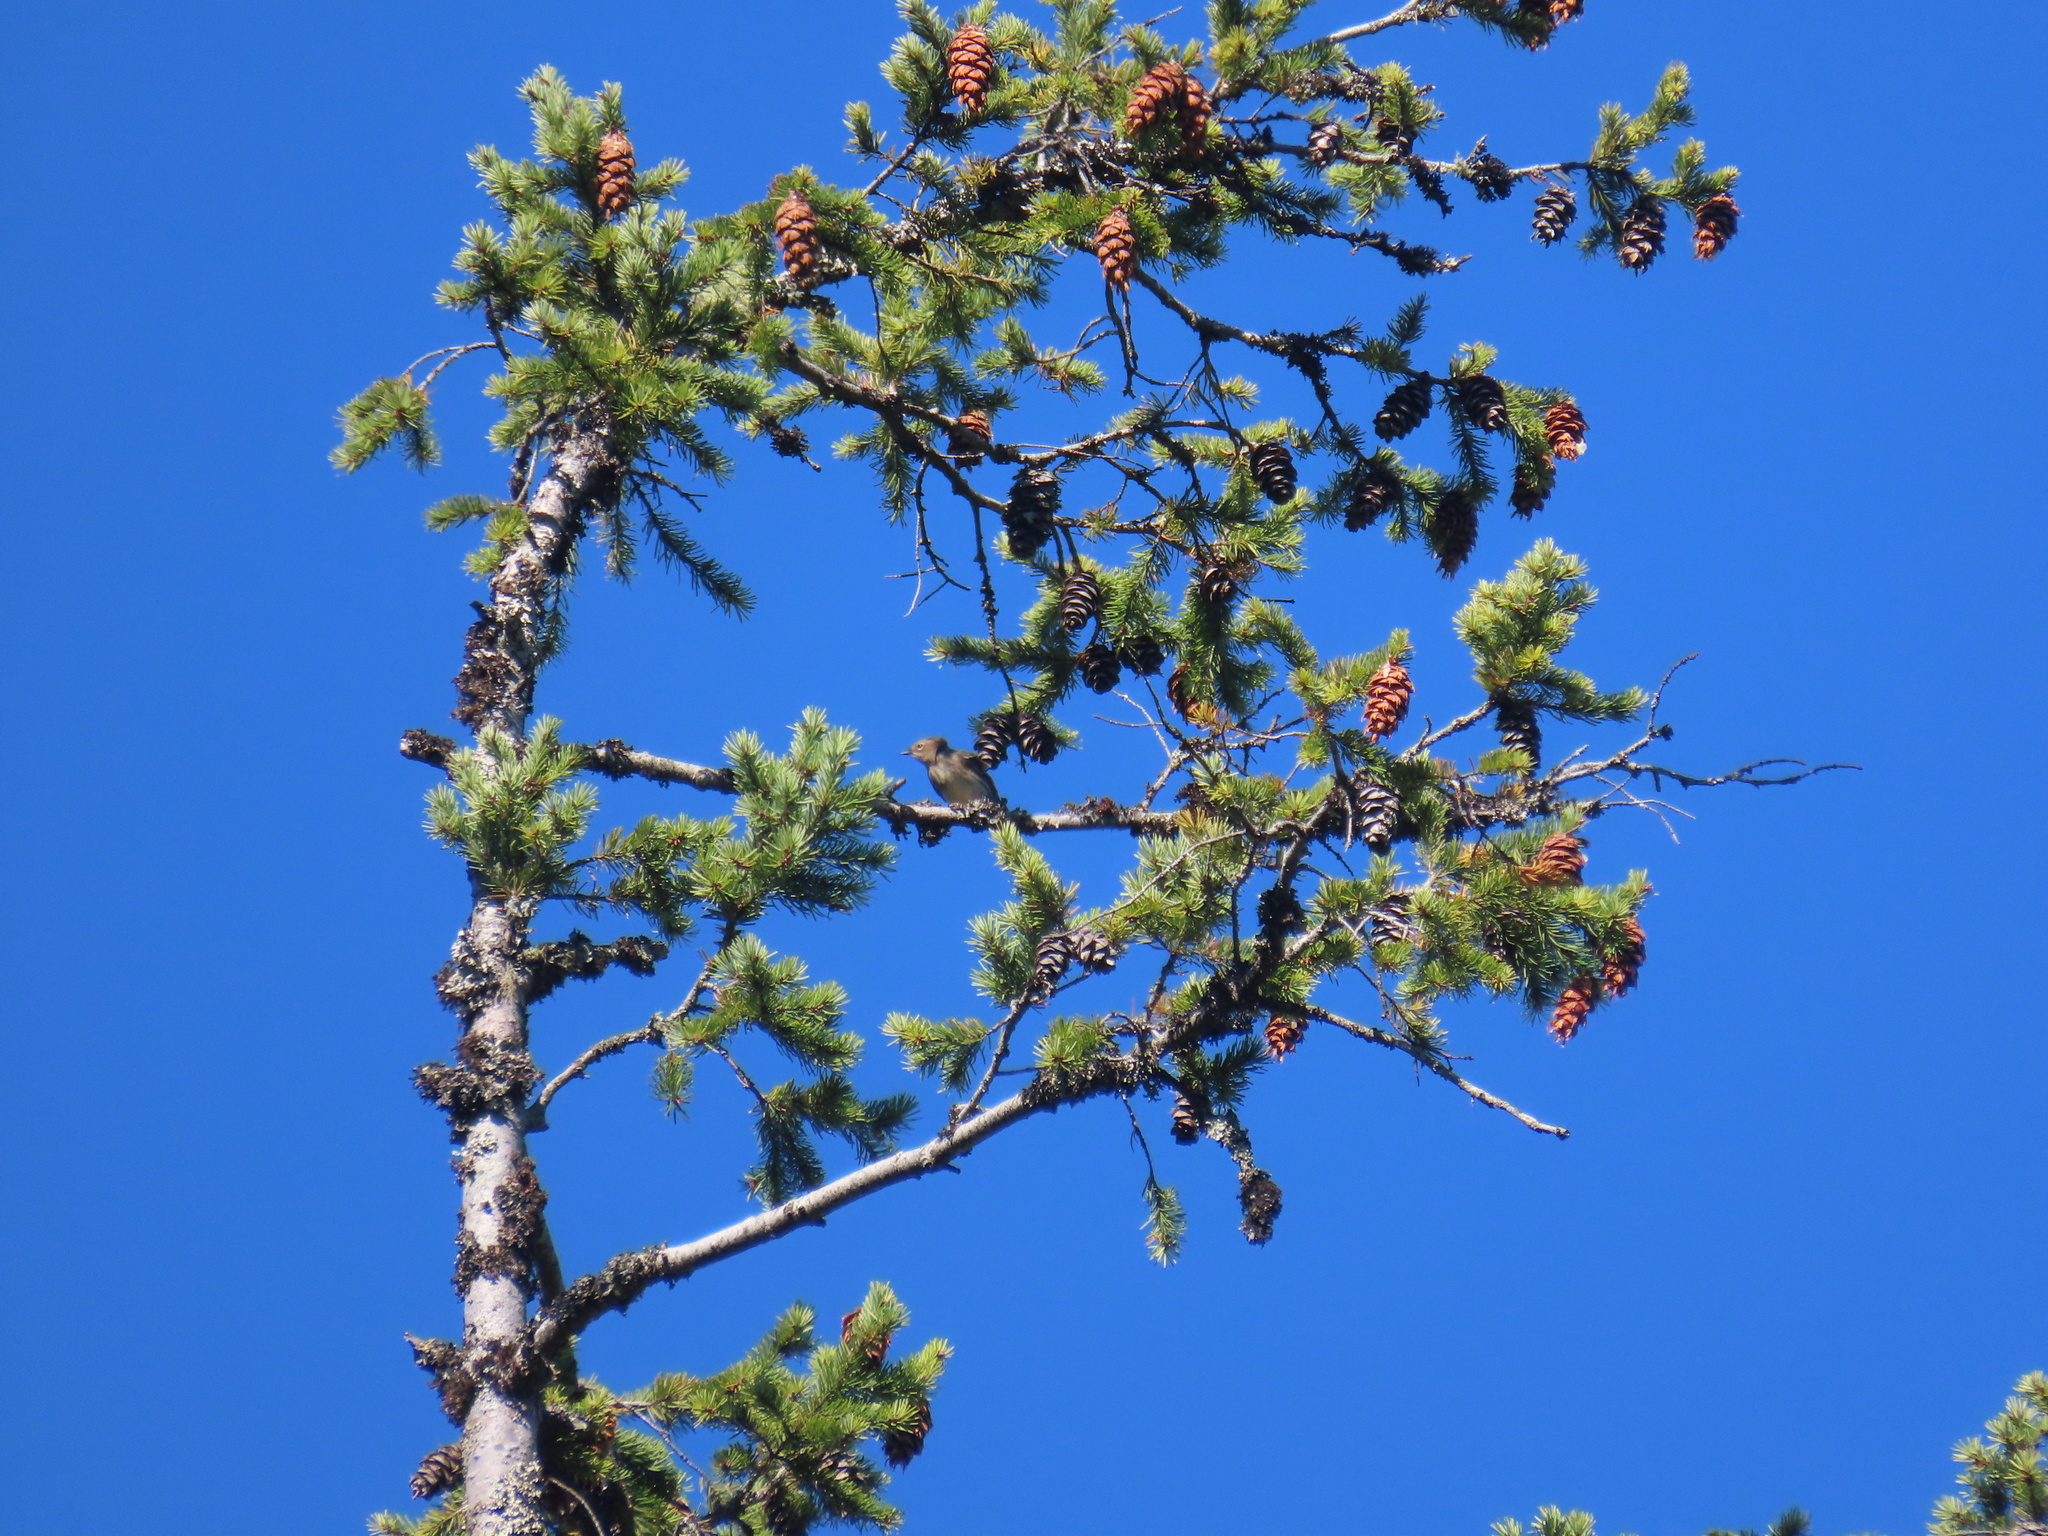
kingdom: Animalia
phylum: Chordata
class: Aves
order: Passeriformes
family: Parulidae
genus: Setophaga
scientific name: Setophaga coronata
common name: Myrtle warbler
